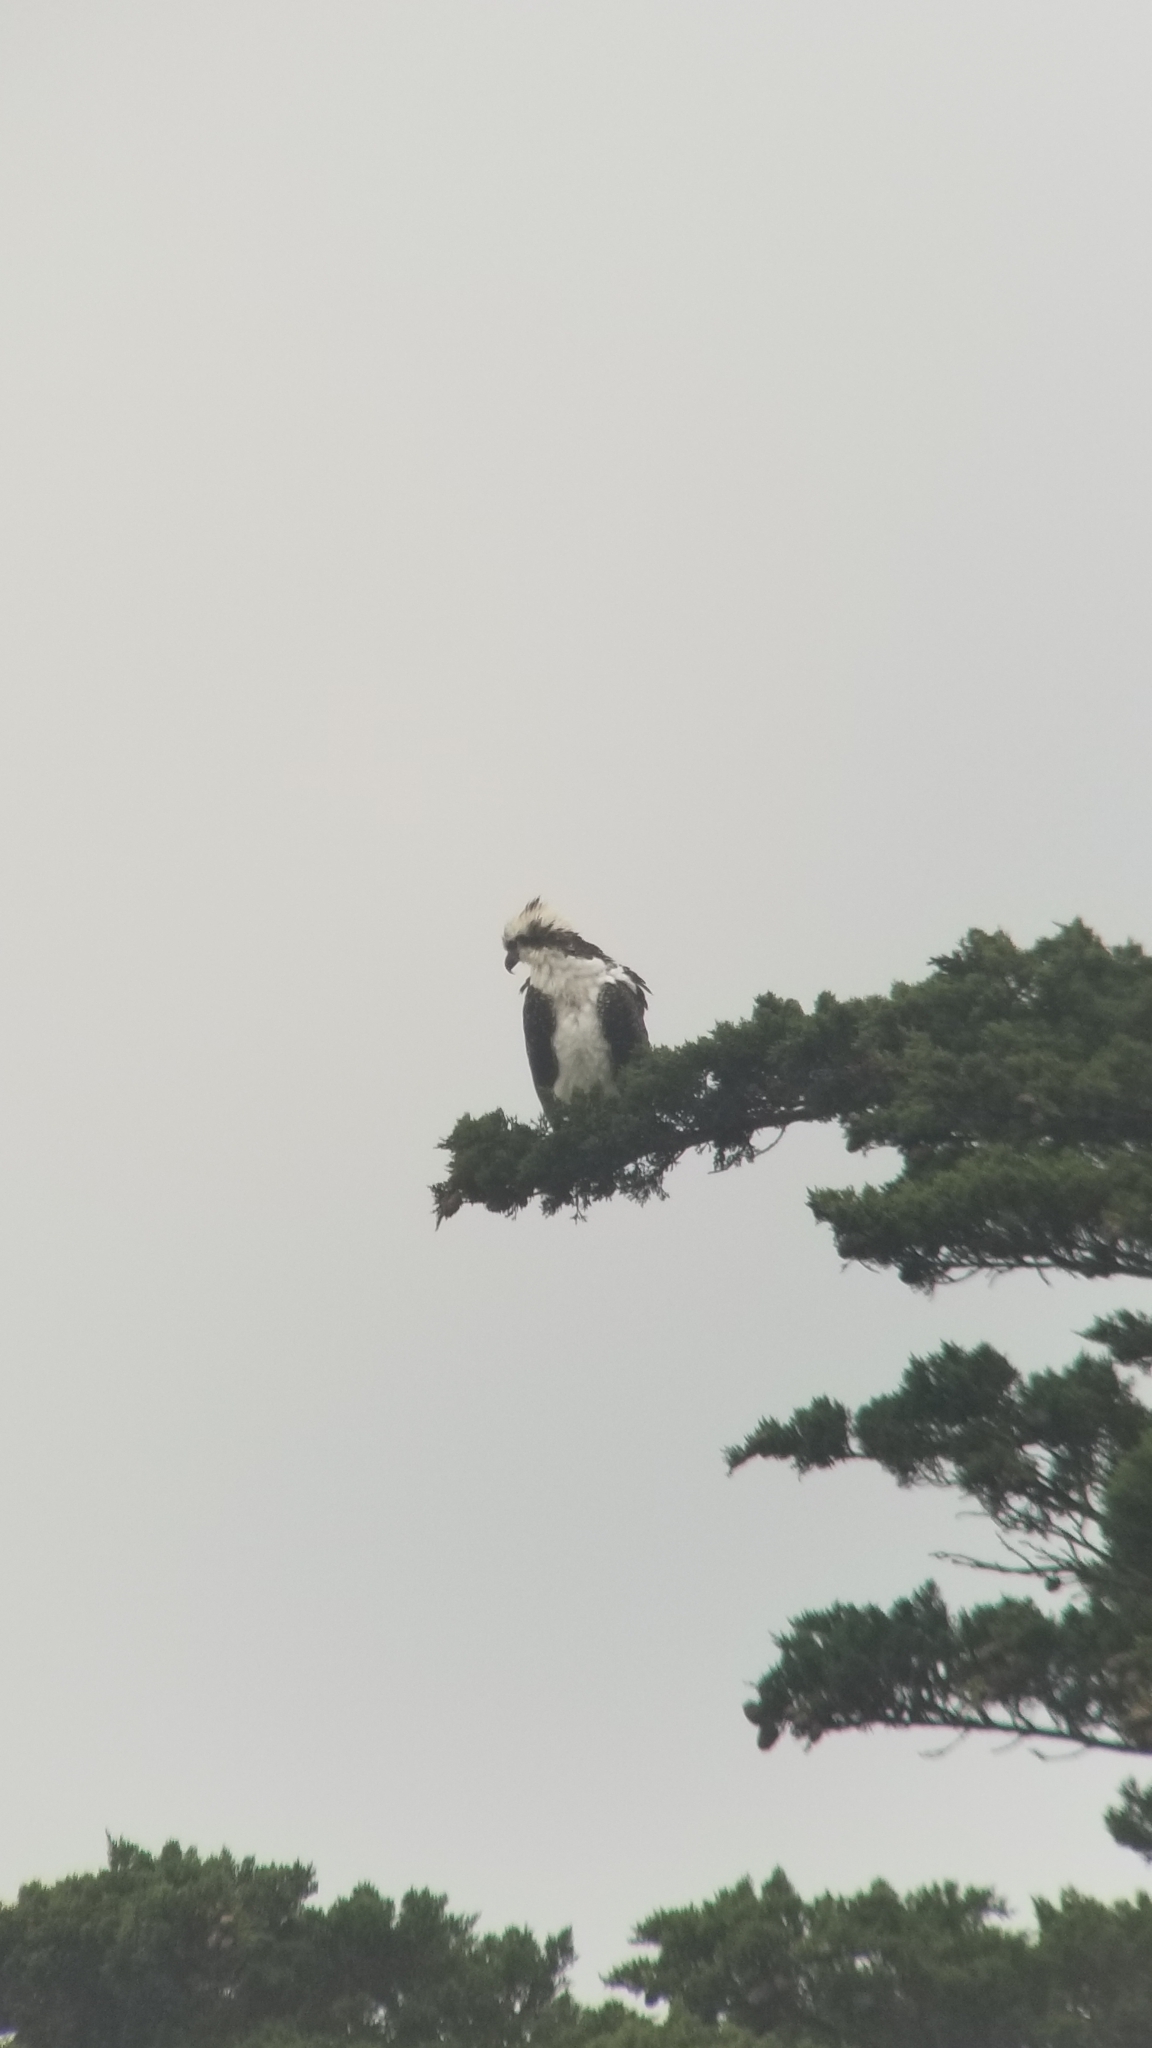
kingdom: Animalia
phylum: Chordata
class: Aves
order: Accipitriformes
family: Pandionidae
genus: Pandion
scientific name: Pandion haliaetus
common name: Osprey
